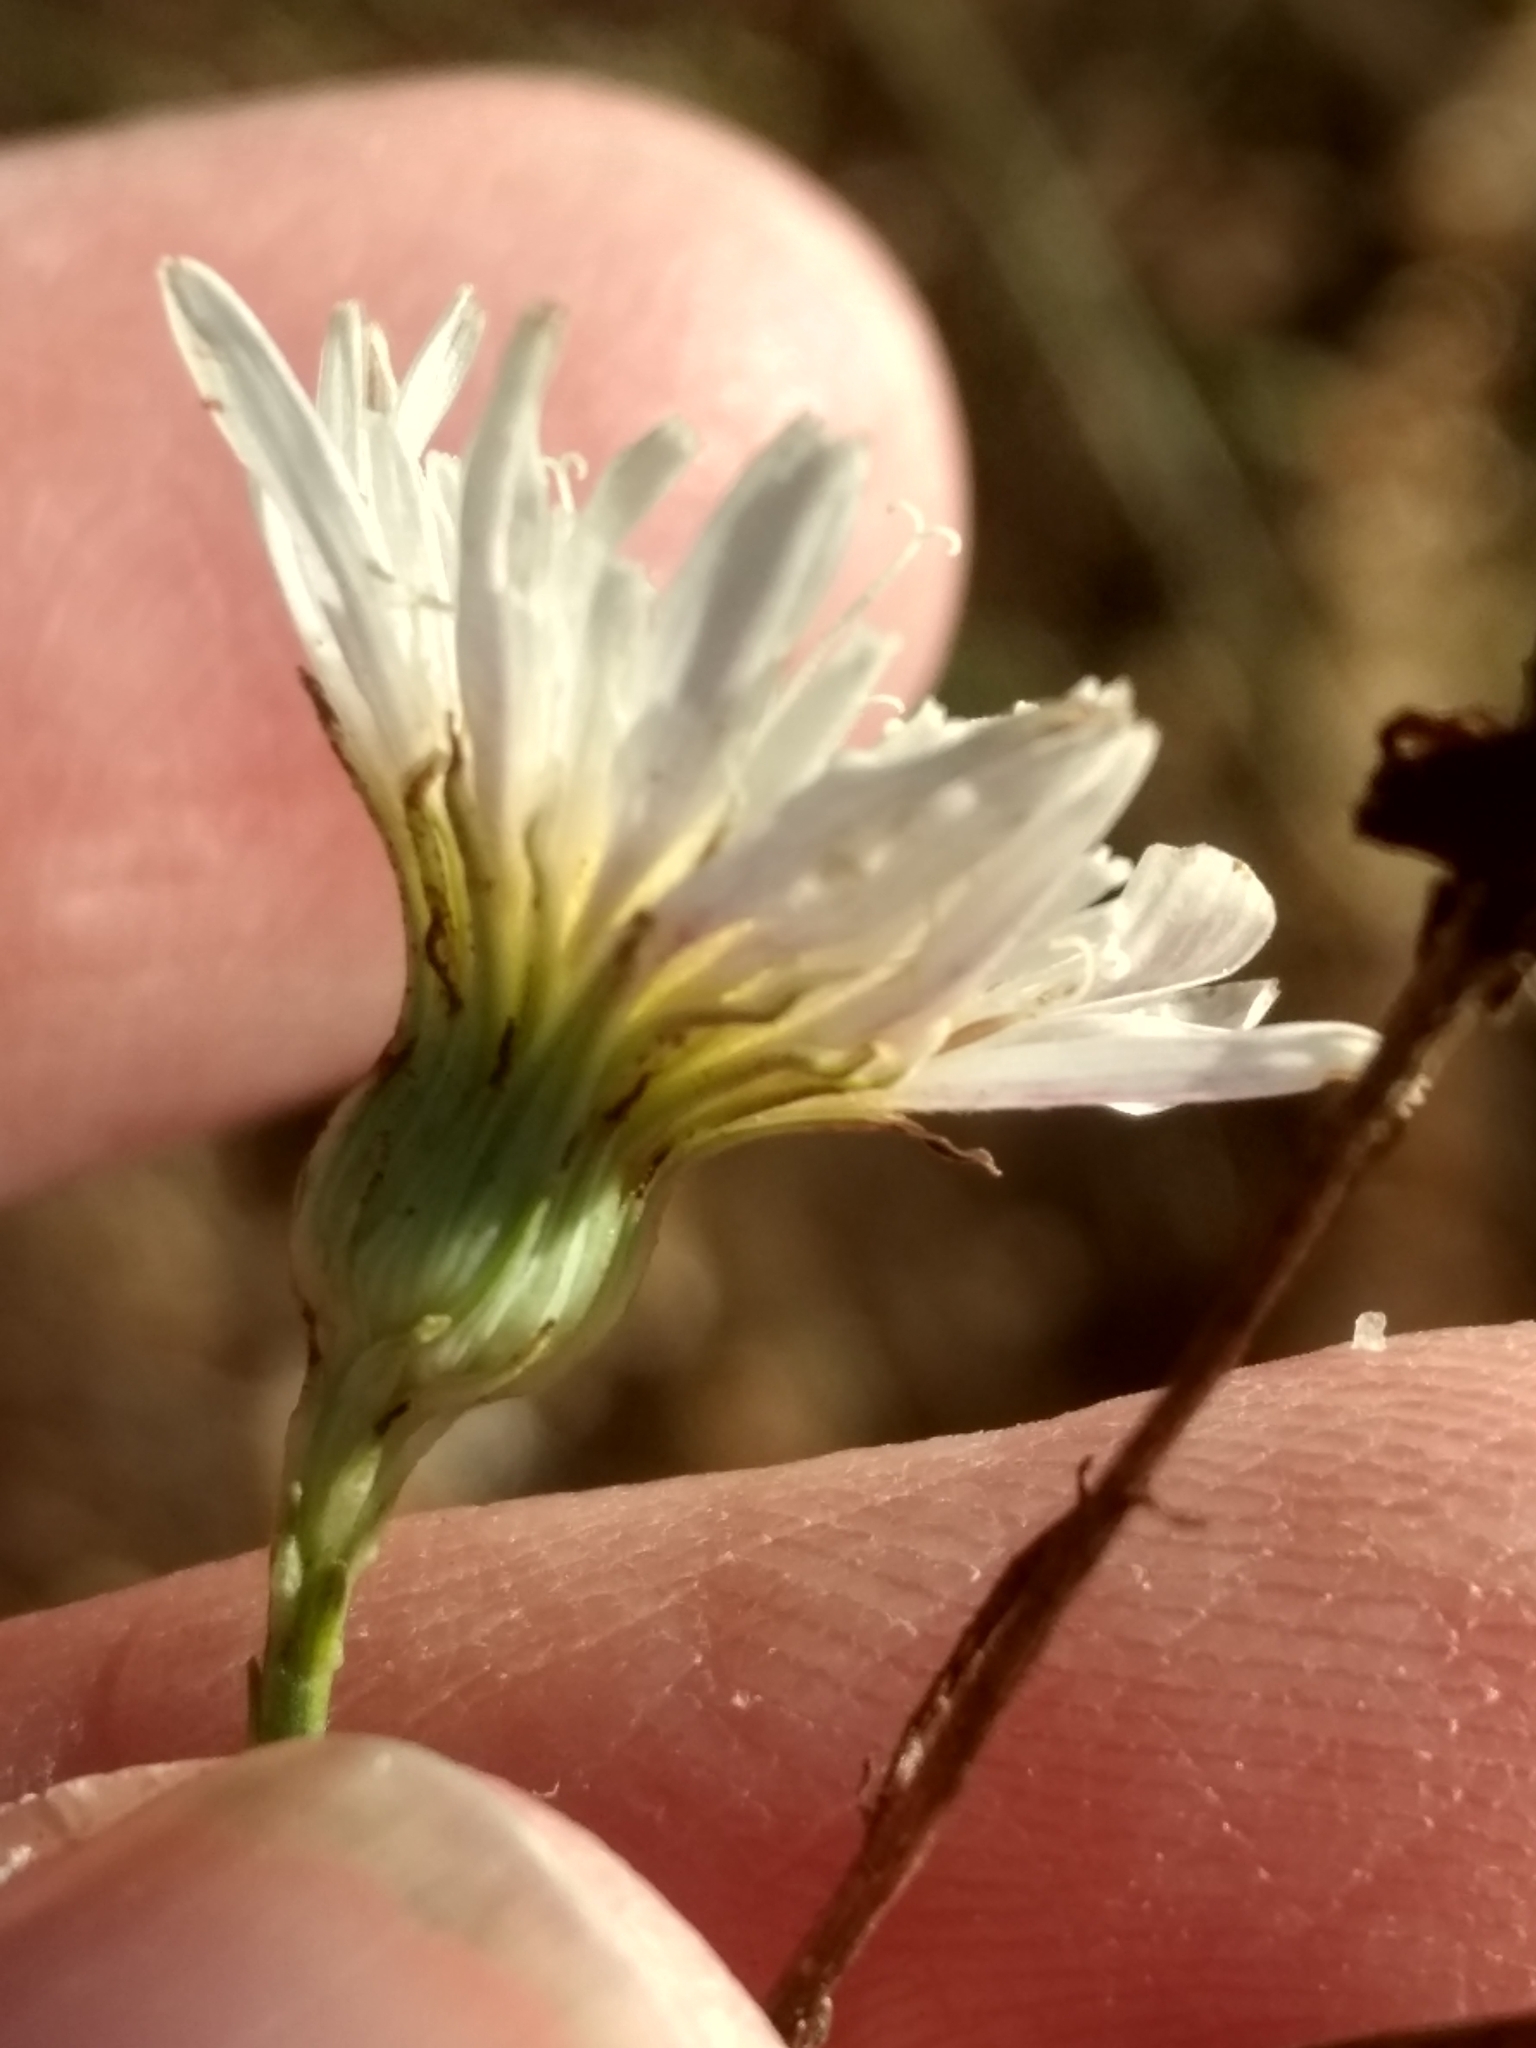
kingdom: Plantae
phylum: Tracheophyta
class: Magnoliopsida
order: Asterales
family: Asteraceae
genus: Malacothrix
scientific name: Malacothrix saxatilis
